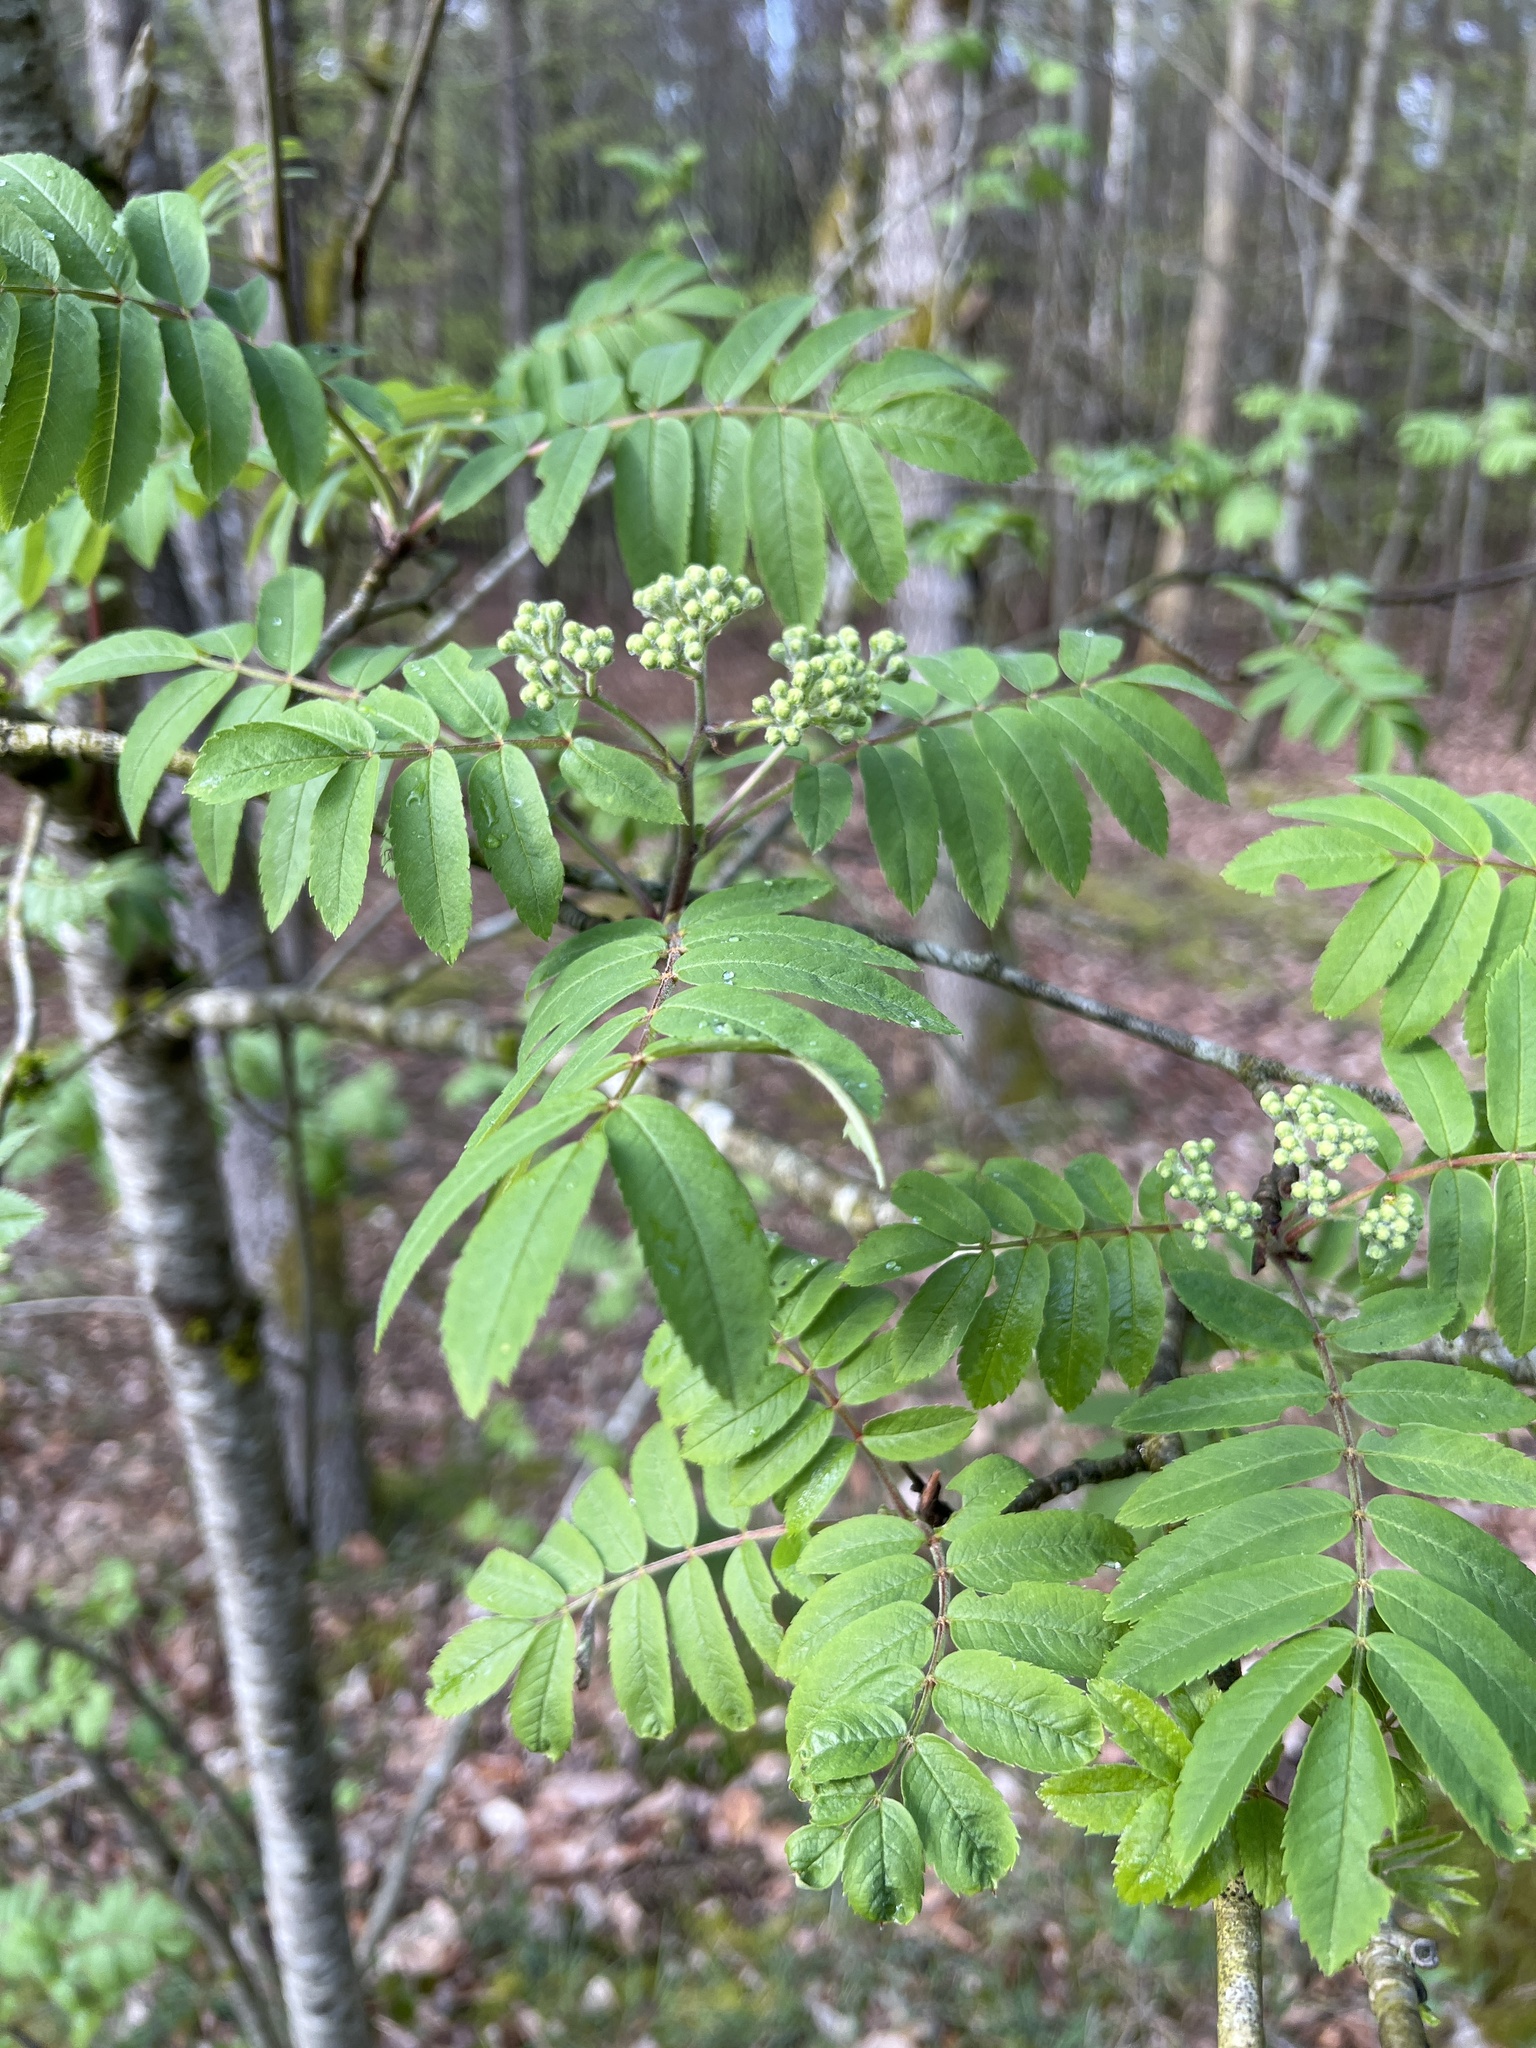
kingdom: Plantae
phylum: Tracheophyta
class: Magnoliopsida
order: Rosales
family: Rosaceae
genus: Sorbus
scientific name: Sorbus aucuparia
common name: Rowan
